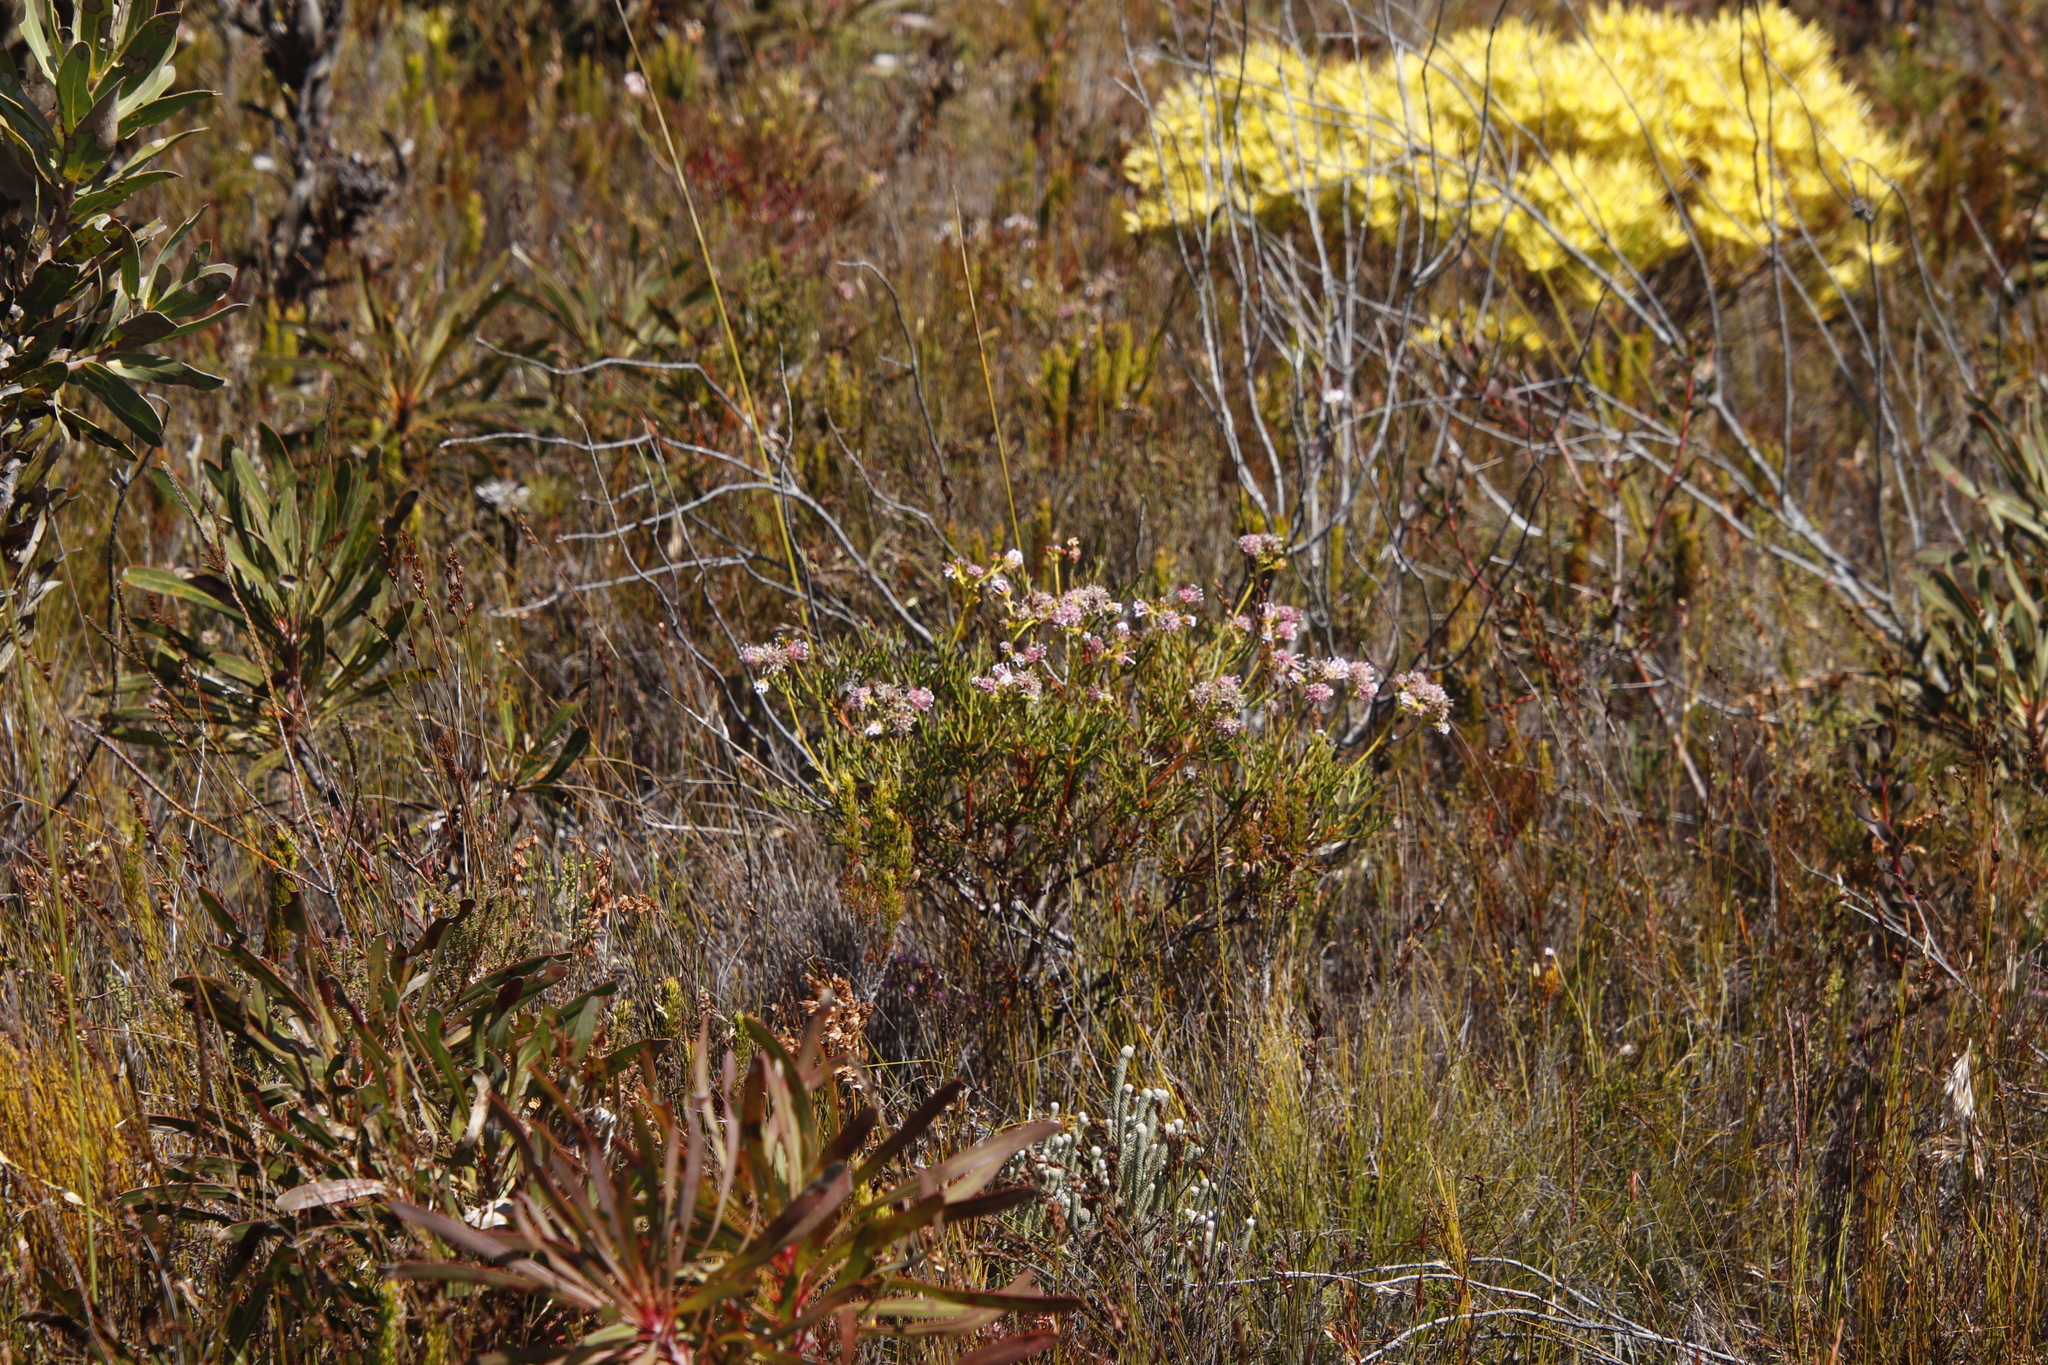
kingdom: Plantae
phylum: Tracheophyta
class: Magnoliopsida
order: Proteales
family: Proteaceae
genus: Serruria
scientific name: Serruria elongata
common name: Long-stalk spiderhead
